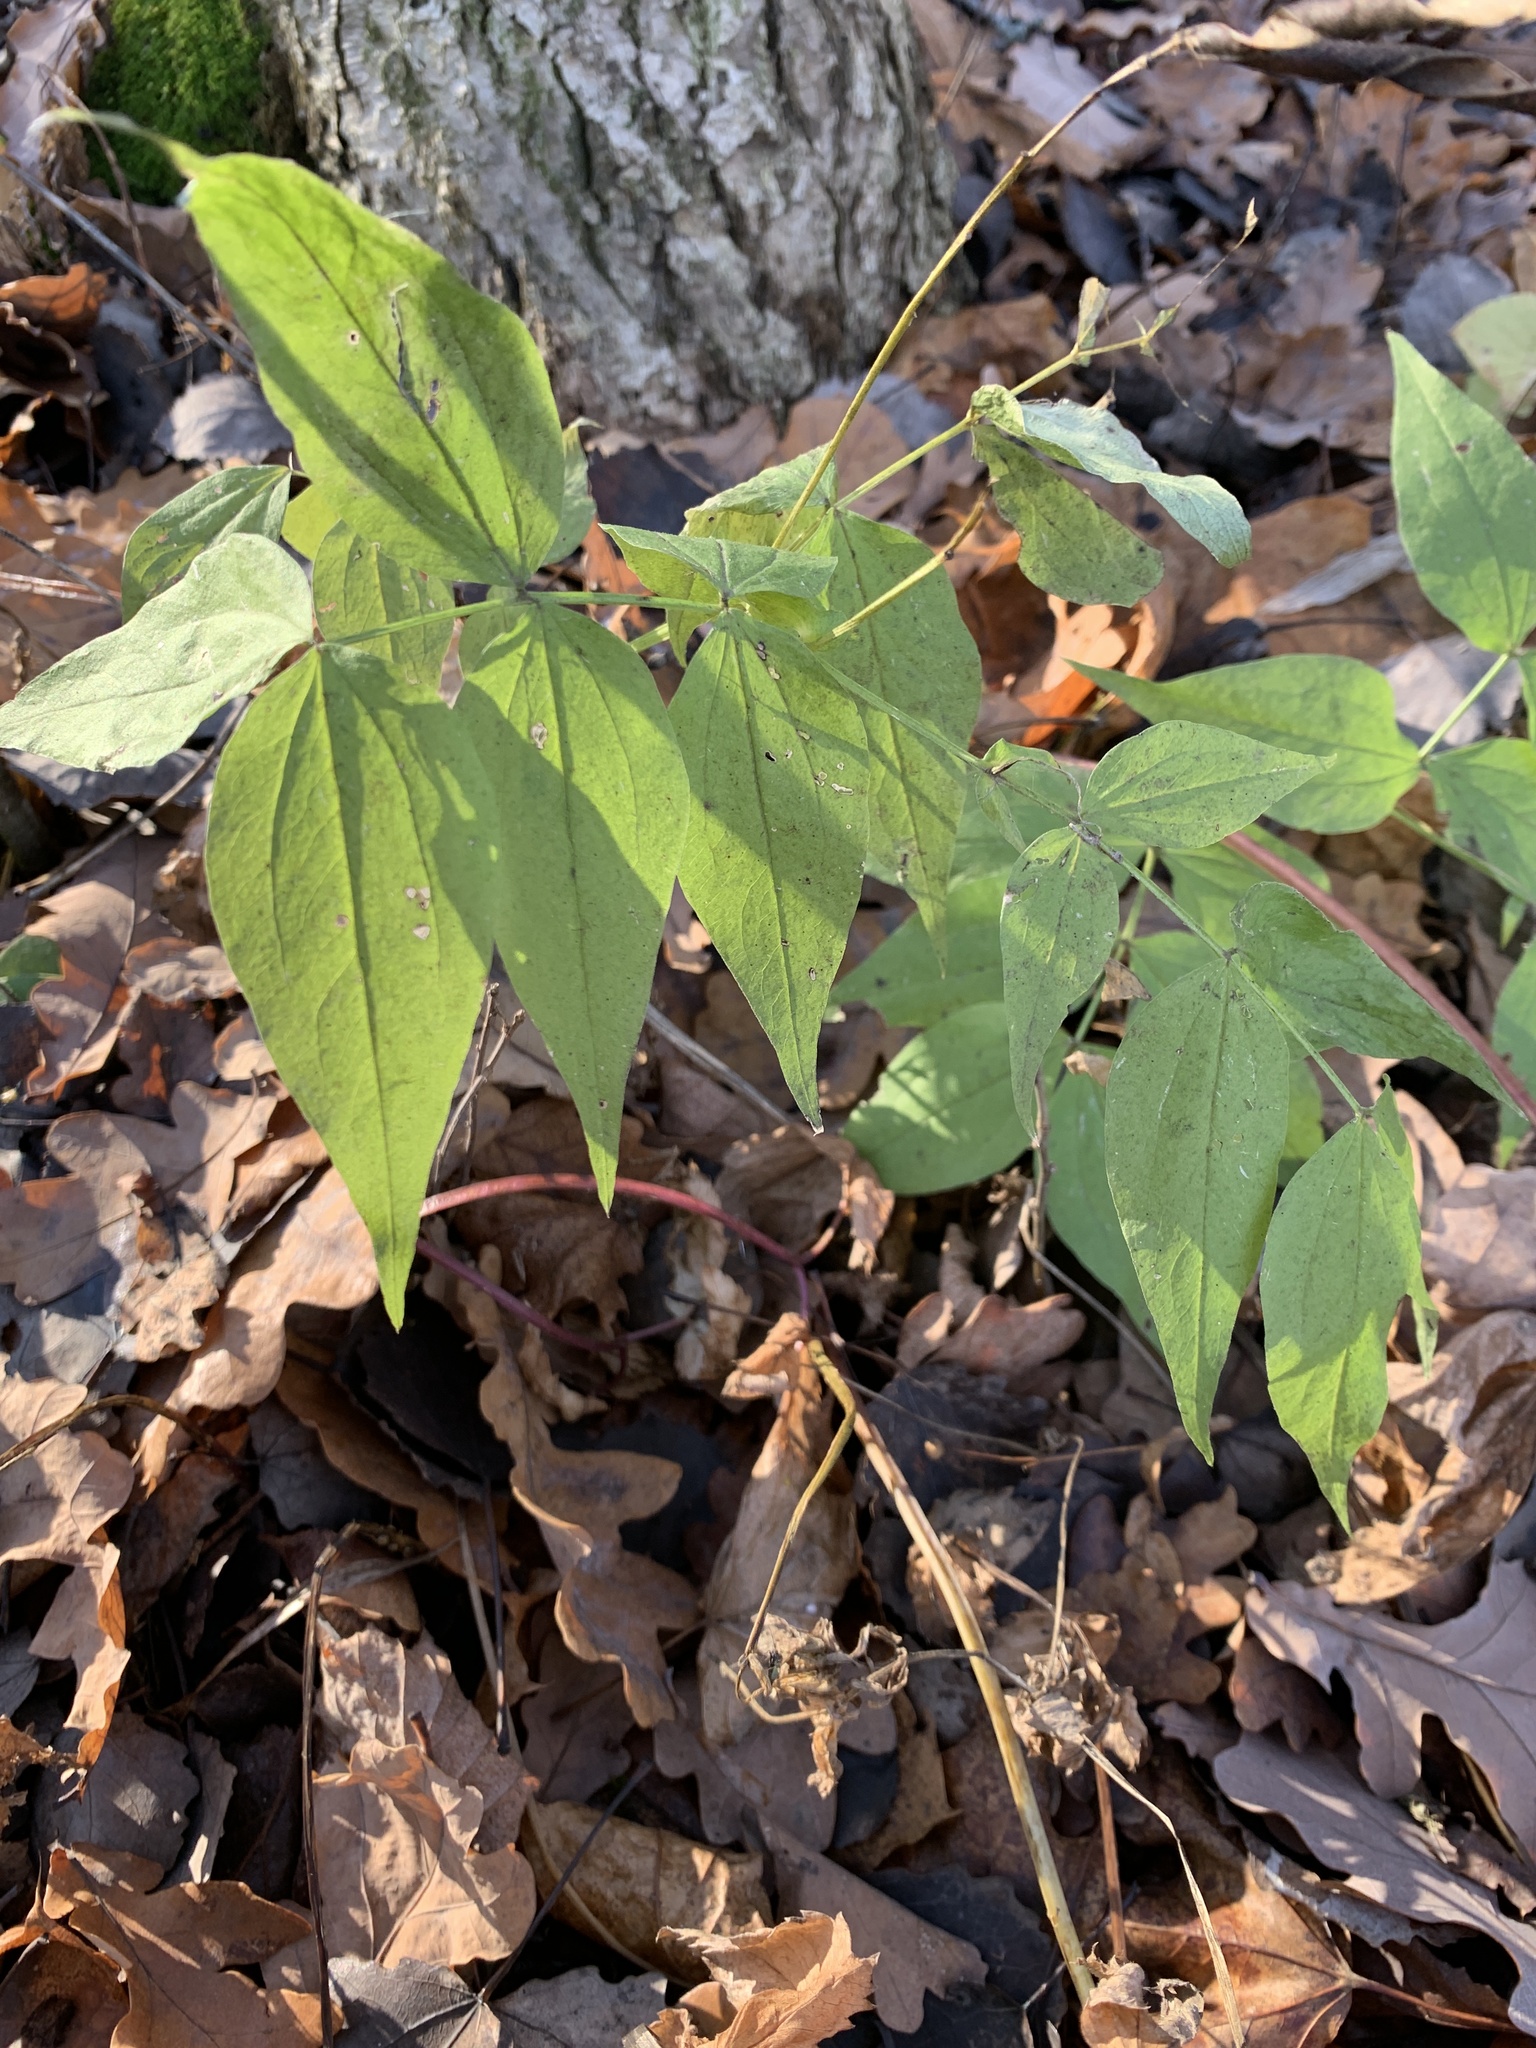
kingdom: Plantae
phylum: Tracheophyta
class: Magnoliopsida
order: Fabales
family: Fabaceae
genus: Lathyrus
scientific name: Lathyrus vernus
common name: Spring pea
